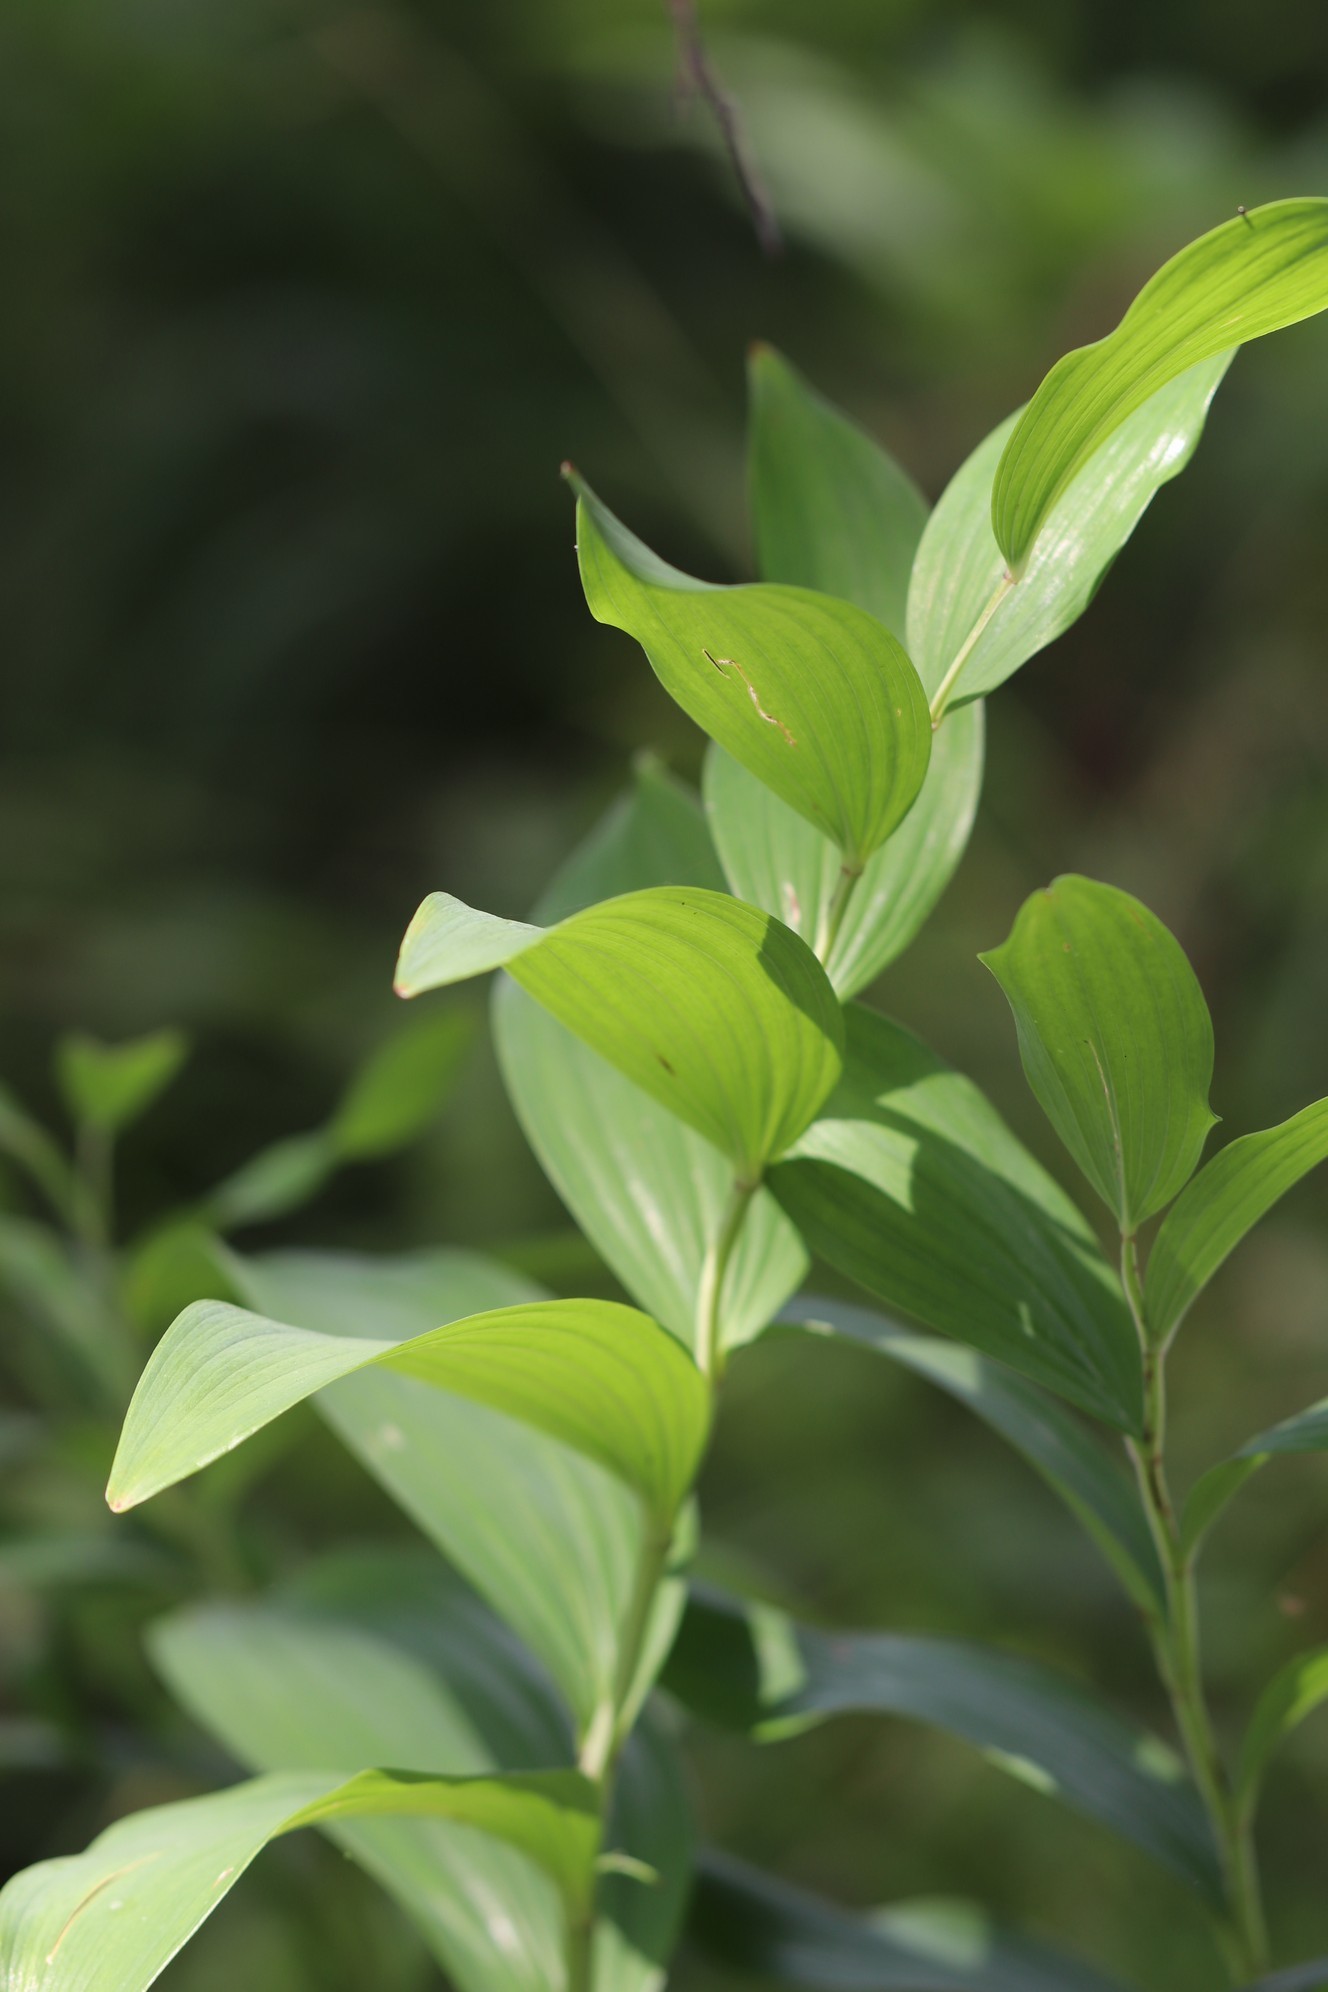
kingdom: Plantae
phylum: Tracheophyta
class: Liliopsida
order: Asparagales
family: Asparagaceae
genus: Polygonatum
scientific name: Polygonatum odoratum
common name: Angular solomon's-seal
